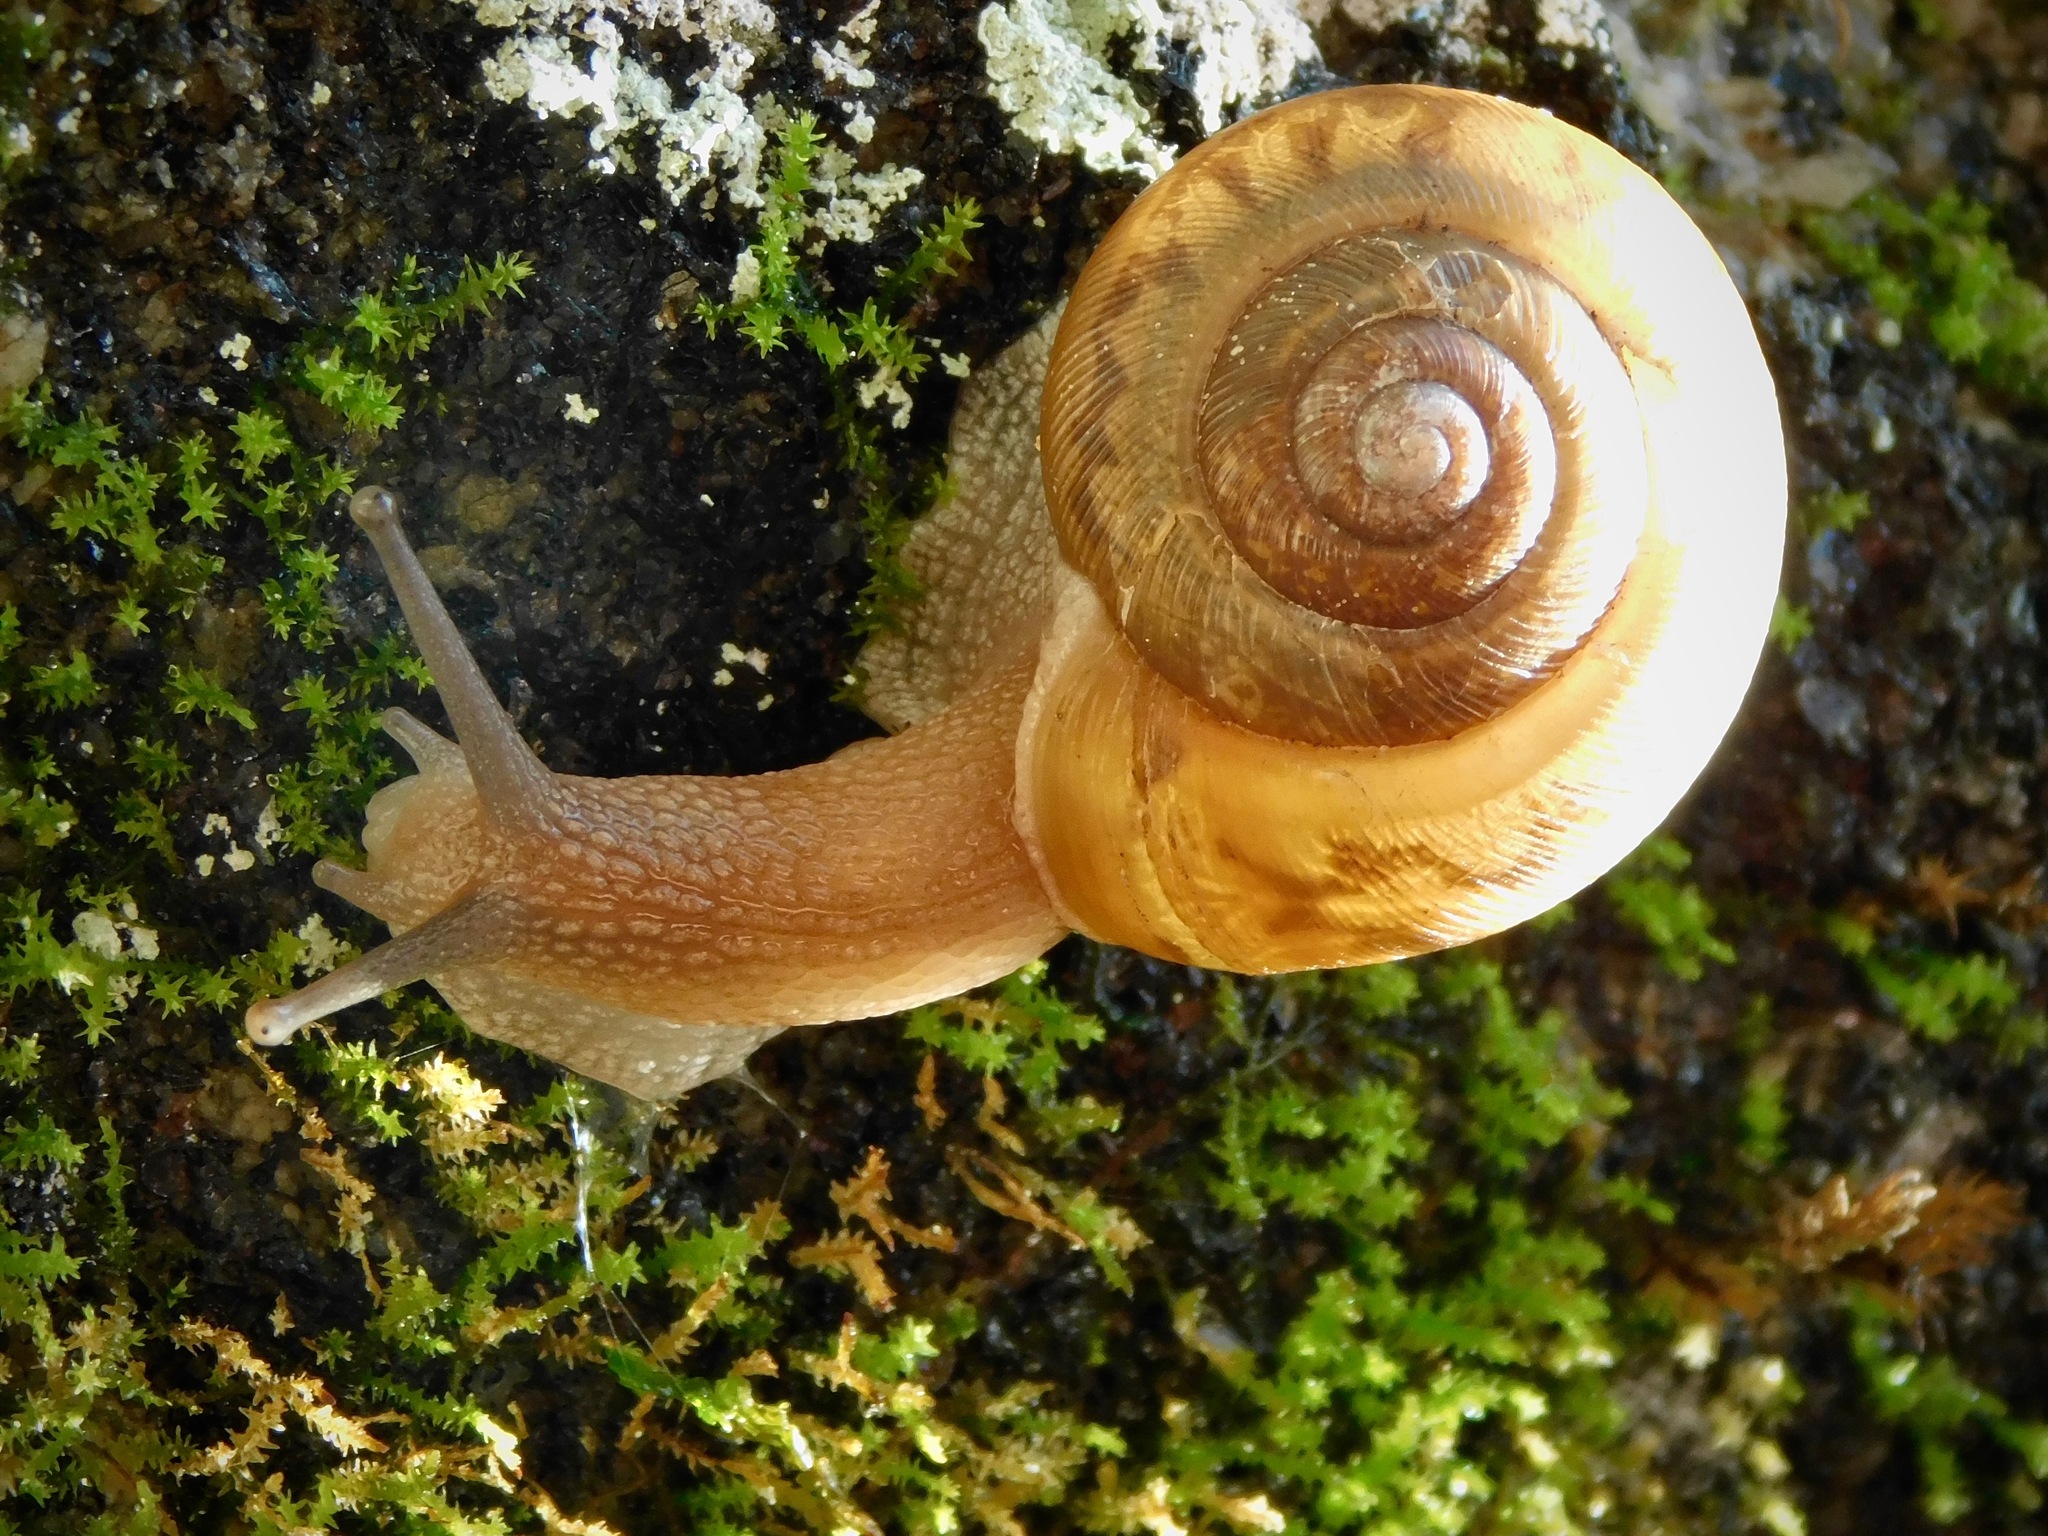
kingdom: Animalia
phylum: Mollusca
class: Gastropoda
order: Stylommatophora
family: Polygyridae
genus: Mesodon
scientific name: Mesodon thyroidus
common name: White-lip globe
